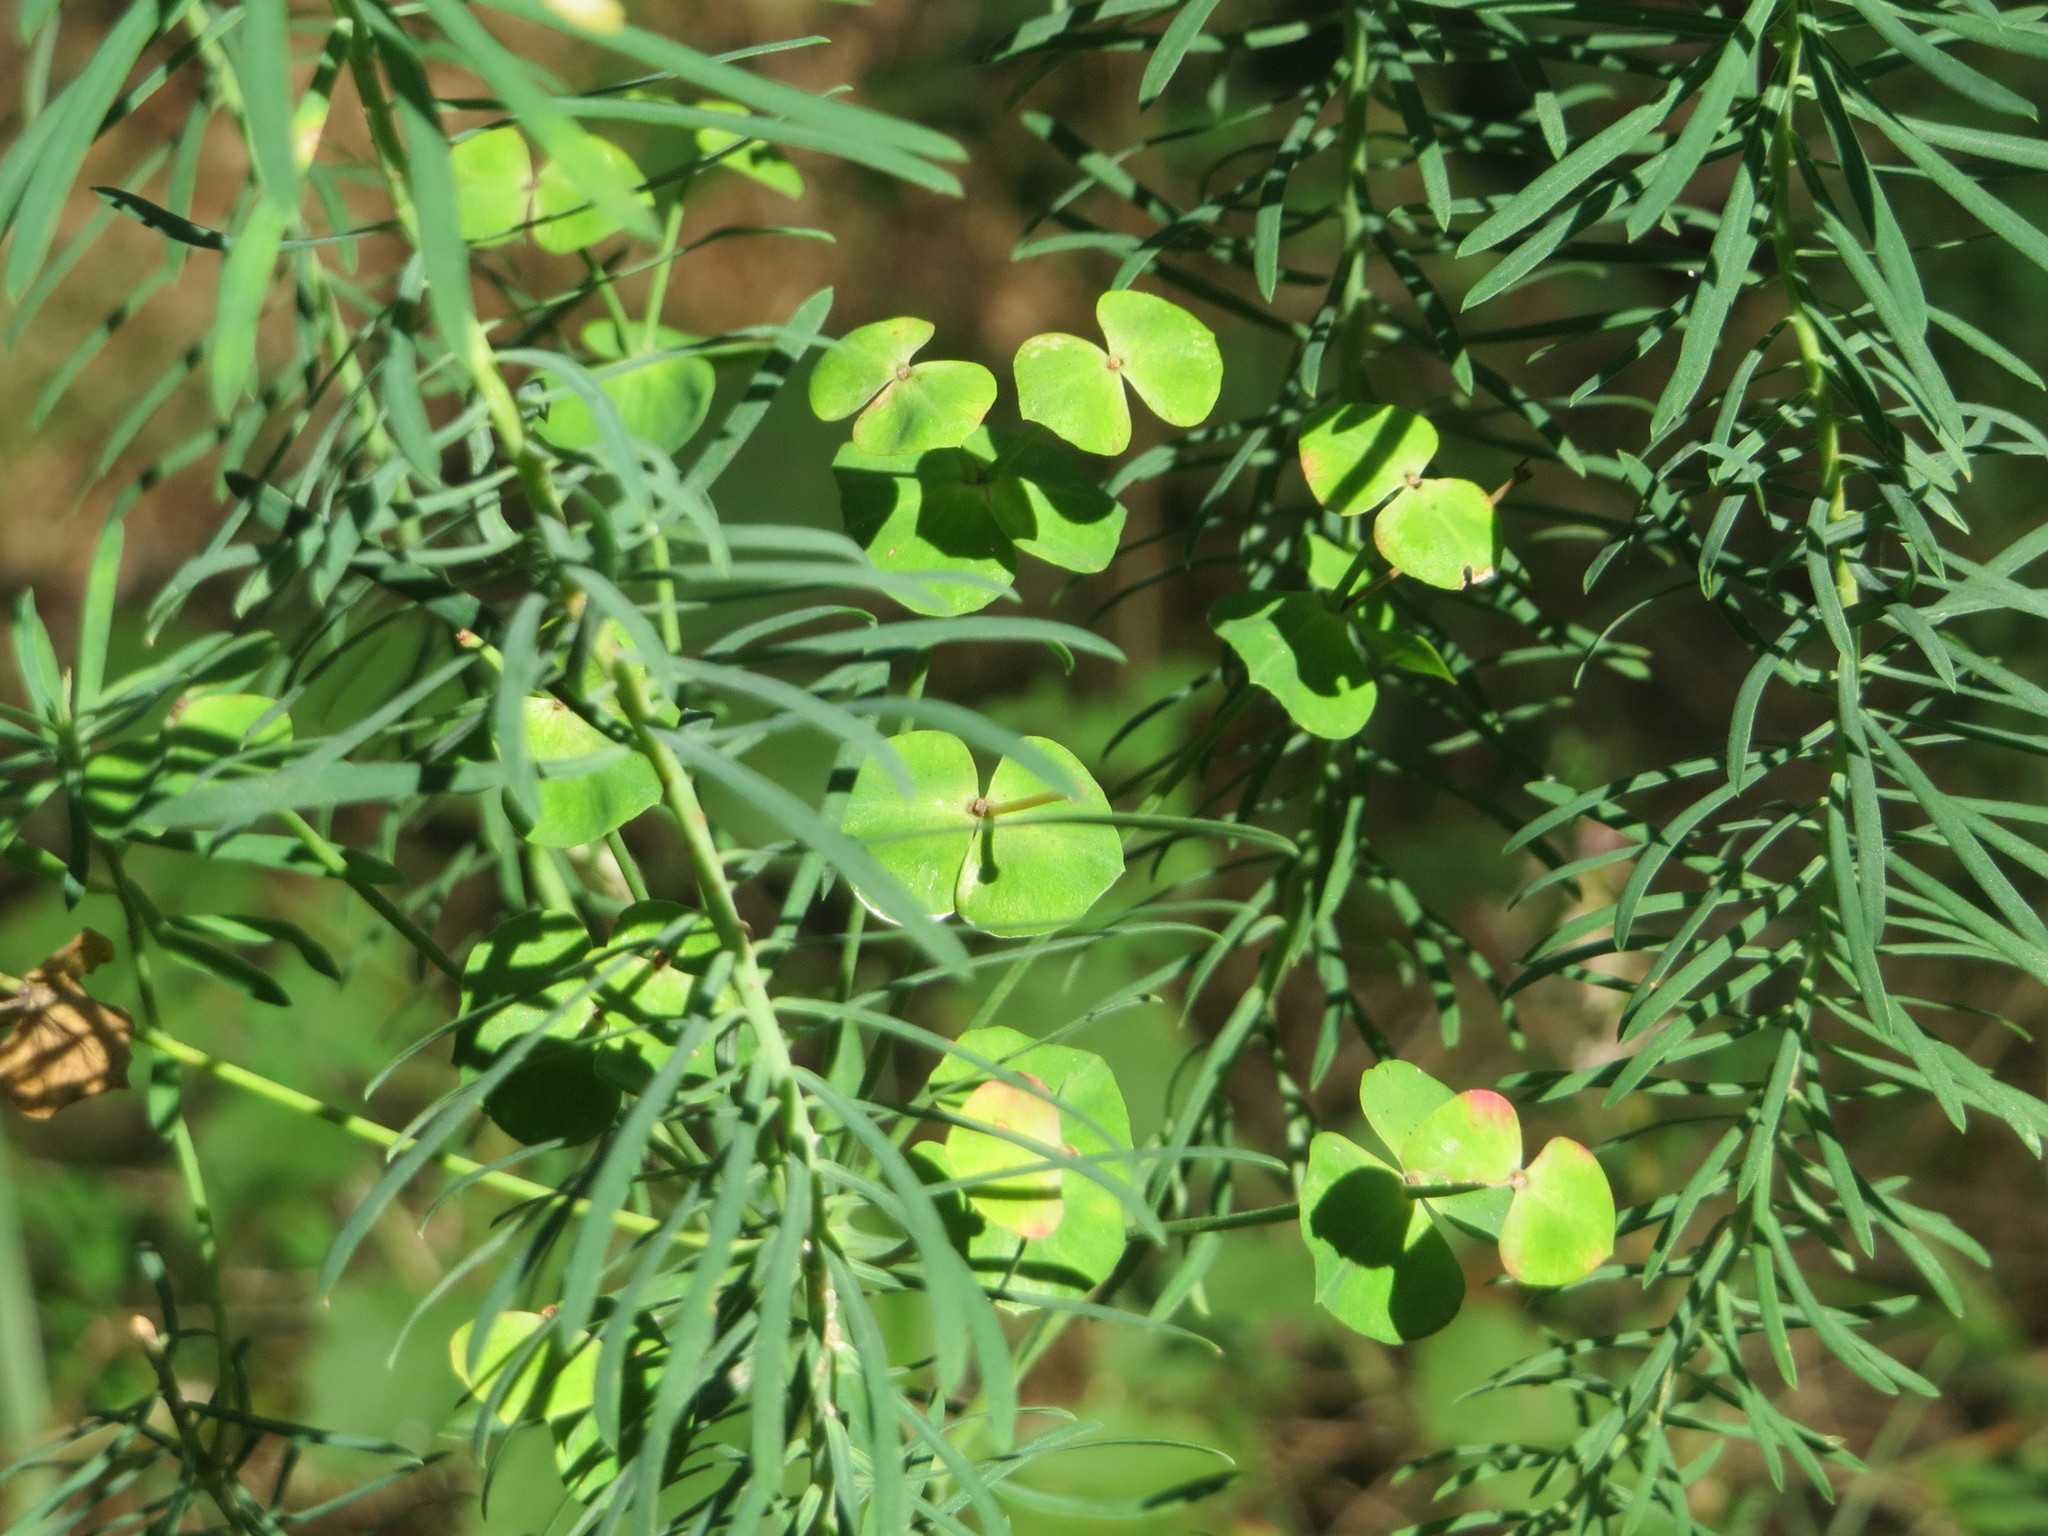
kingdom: Plantae
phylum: Tracheophyta
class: Magnoliopsida
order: Malpighiales
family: Euphorbiaceae
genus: Euphorbia
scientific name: Euphorbia cyparissias
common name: Cypress spurge
